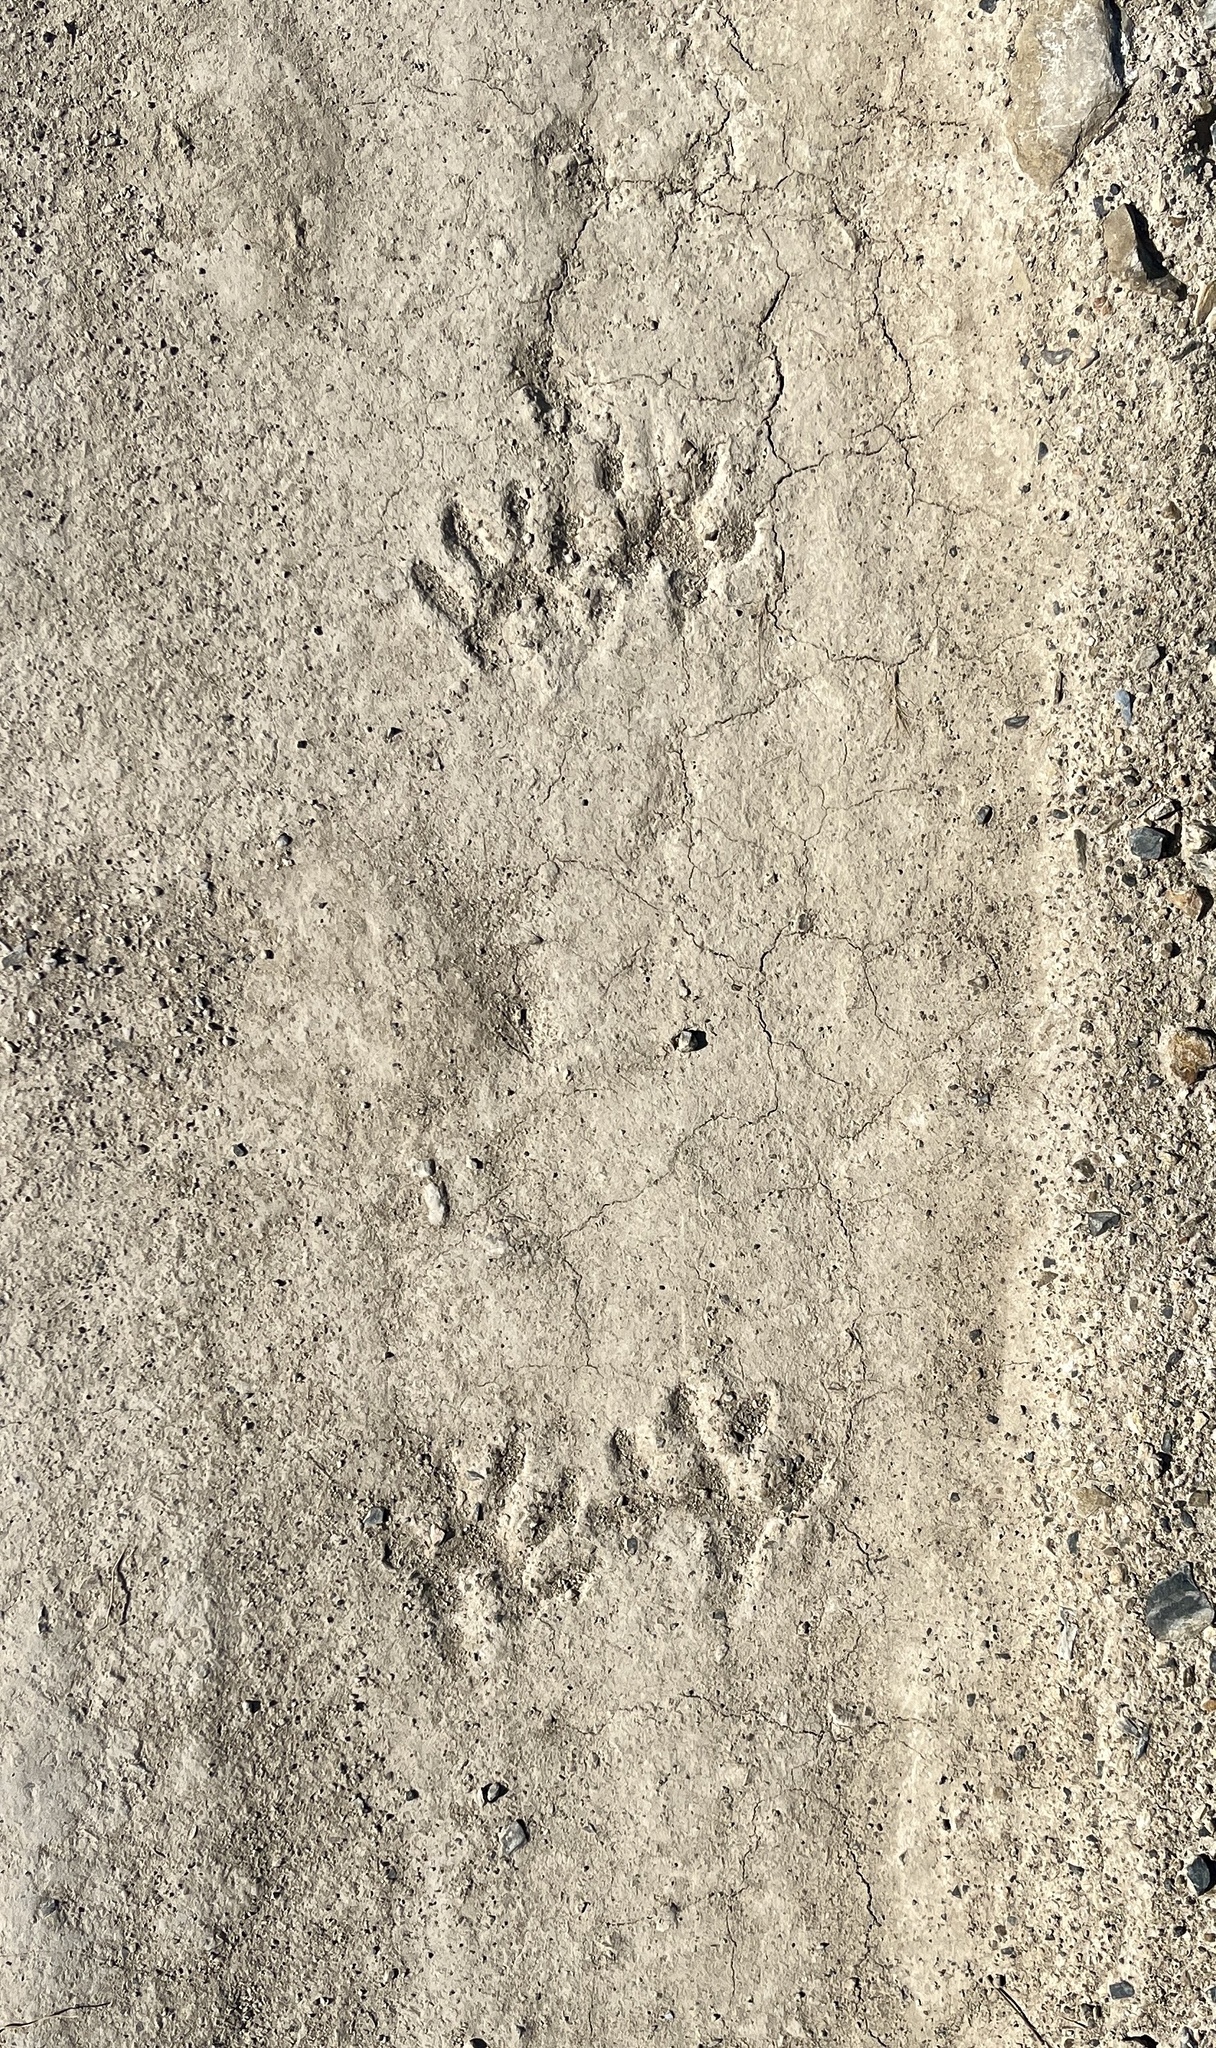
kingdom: Animalia
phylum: Chordata
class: Mammalia
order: Carnivora
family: Procyonidae
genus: Procyon
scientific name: Procyon lotor
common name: Raccoon
